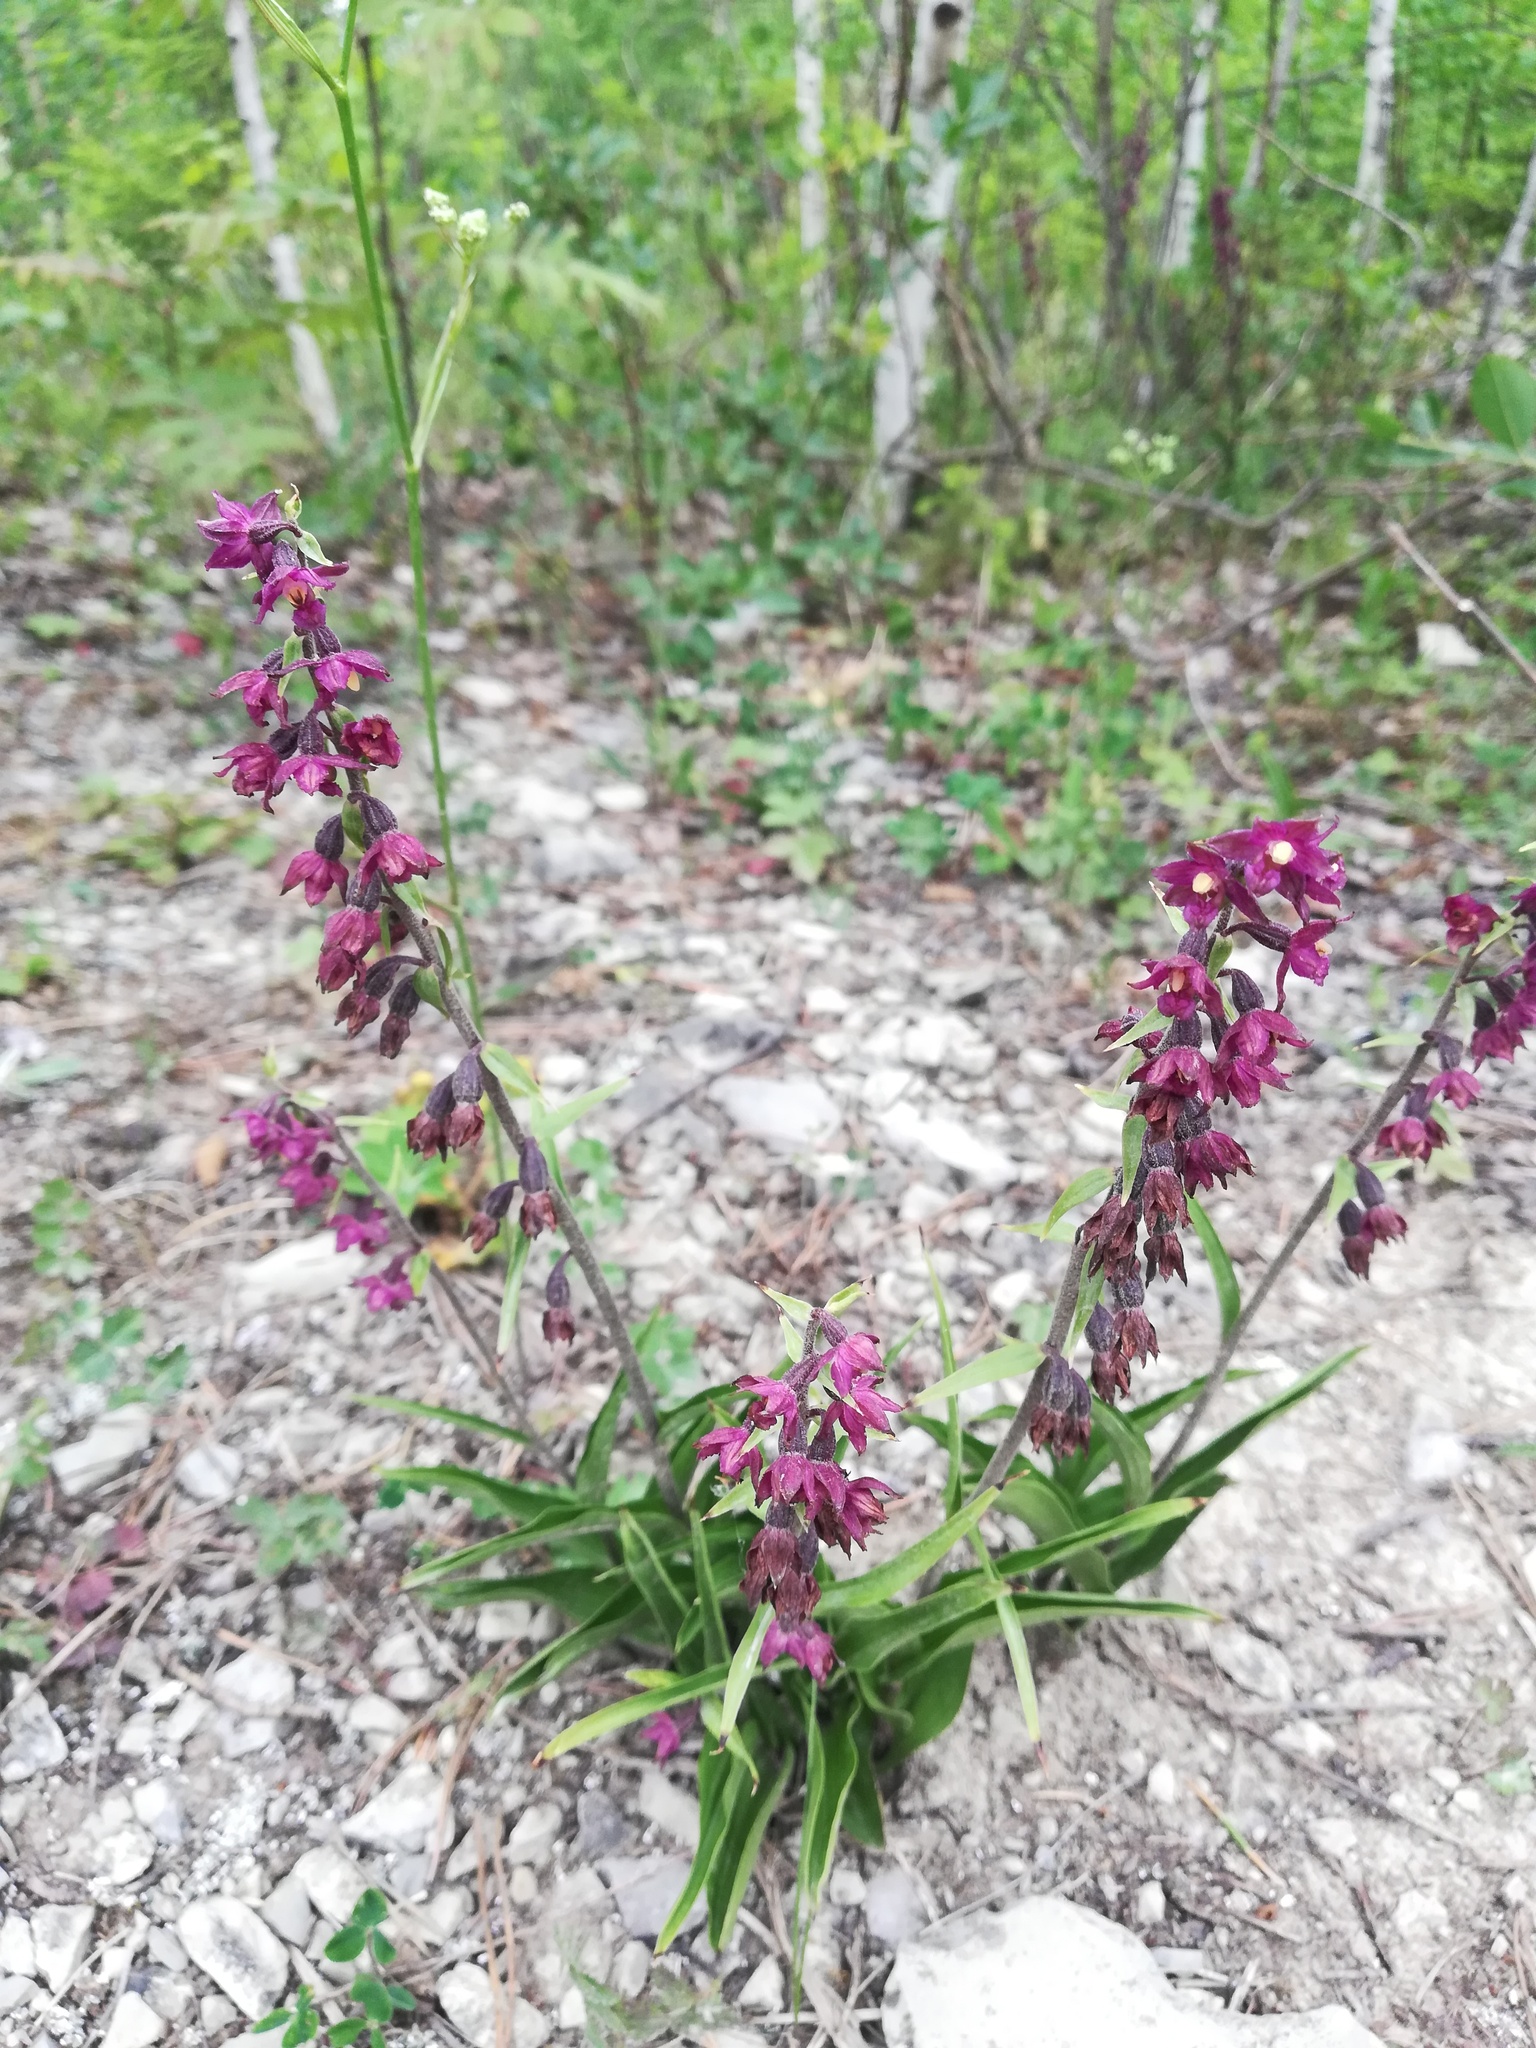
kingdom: Plantae
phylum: Tracheophyta
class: Liliopsida
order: Asparagales
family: Orchidaceae
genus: Epipactis
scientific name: Epipactis atrorubens
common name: Dark-red helleborine
